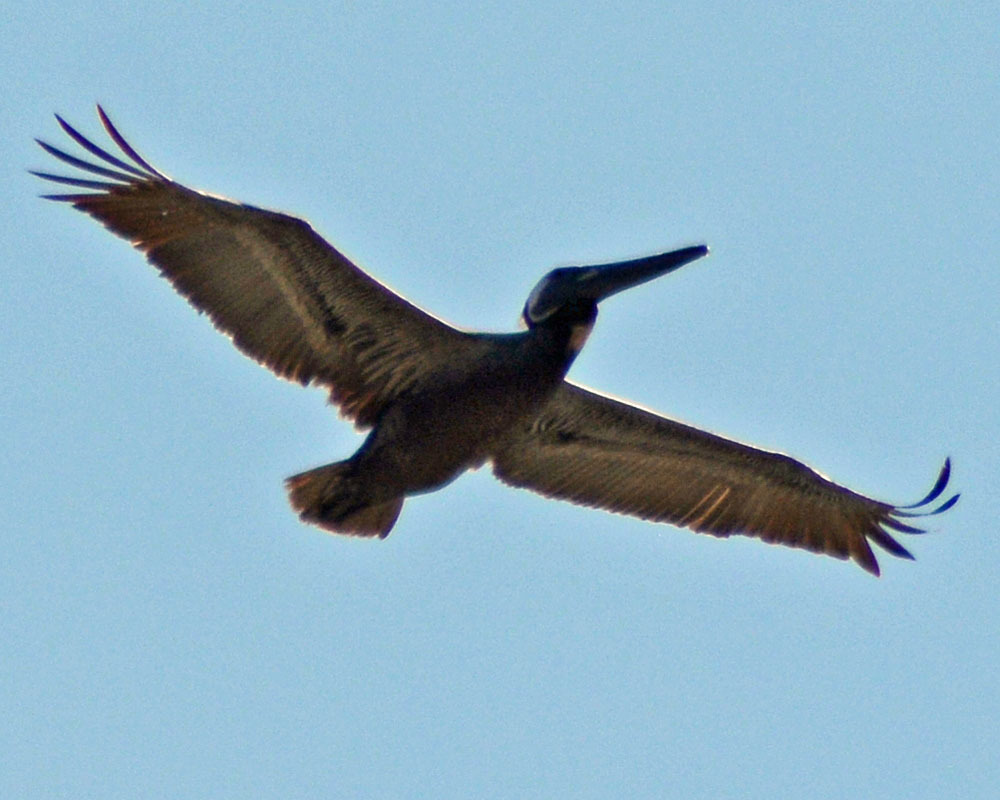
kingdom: Animalia
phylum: Chordata
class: Aves
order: Pelecaniformes
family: Pelecanidae
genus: Pelecanus
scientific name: Pelecanus occidentalis
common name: Brown pelican
